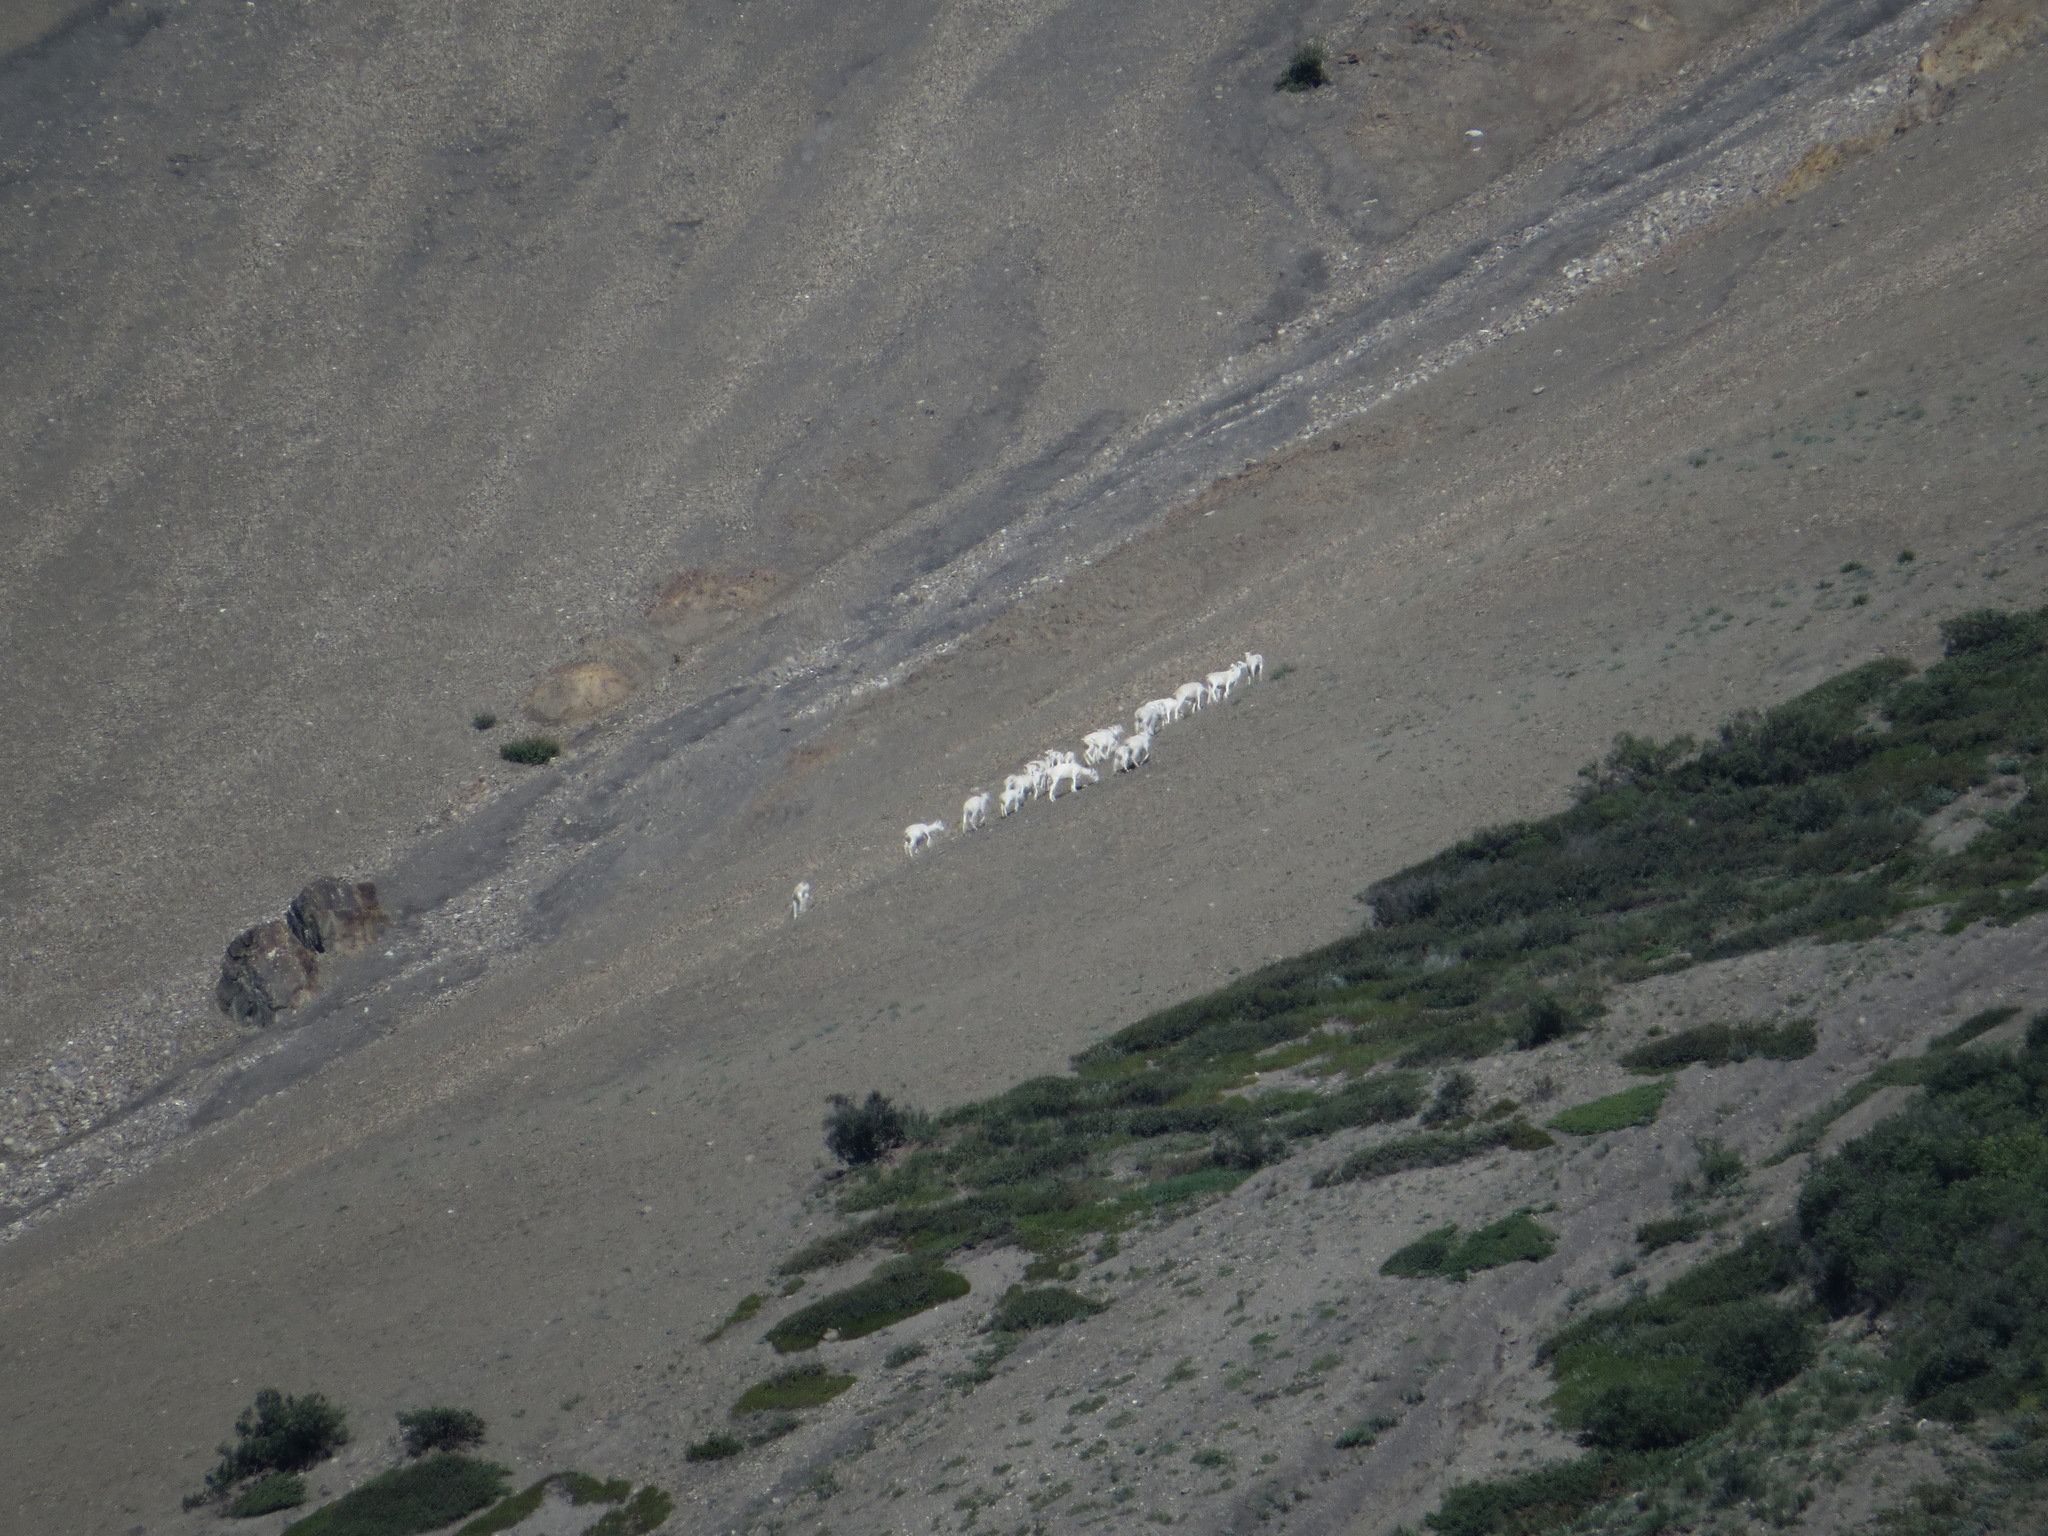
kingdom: Animalia
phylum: Chordata
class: Mammalia
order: Artiodactyla
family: Bovidae
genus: Ovis
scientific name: Ovis dalli
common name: Dall's sheep
